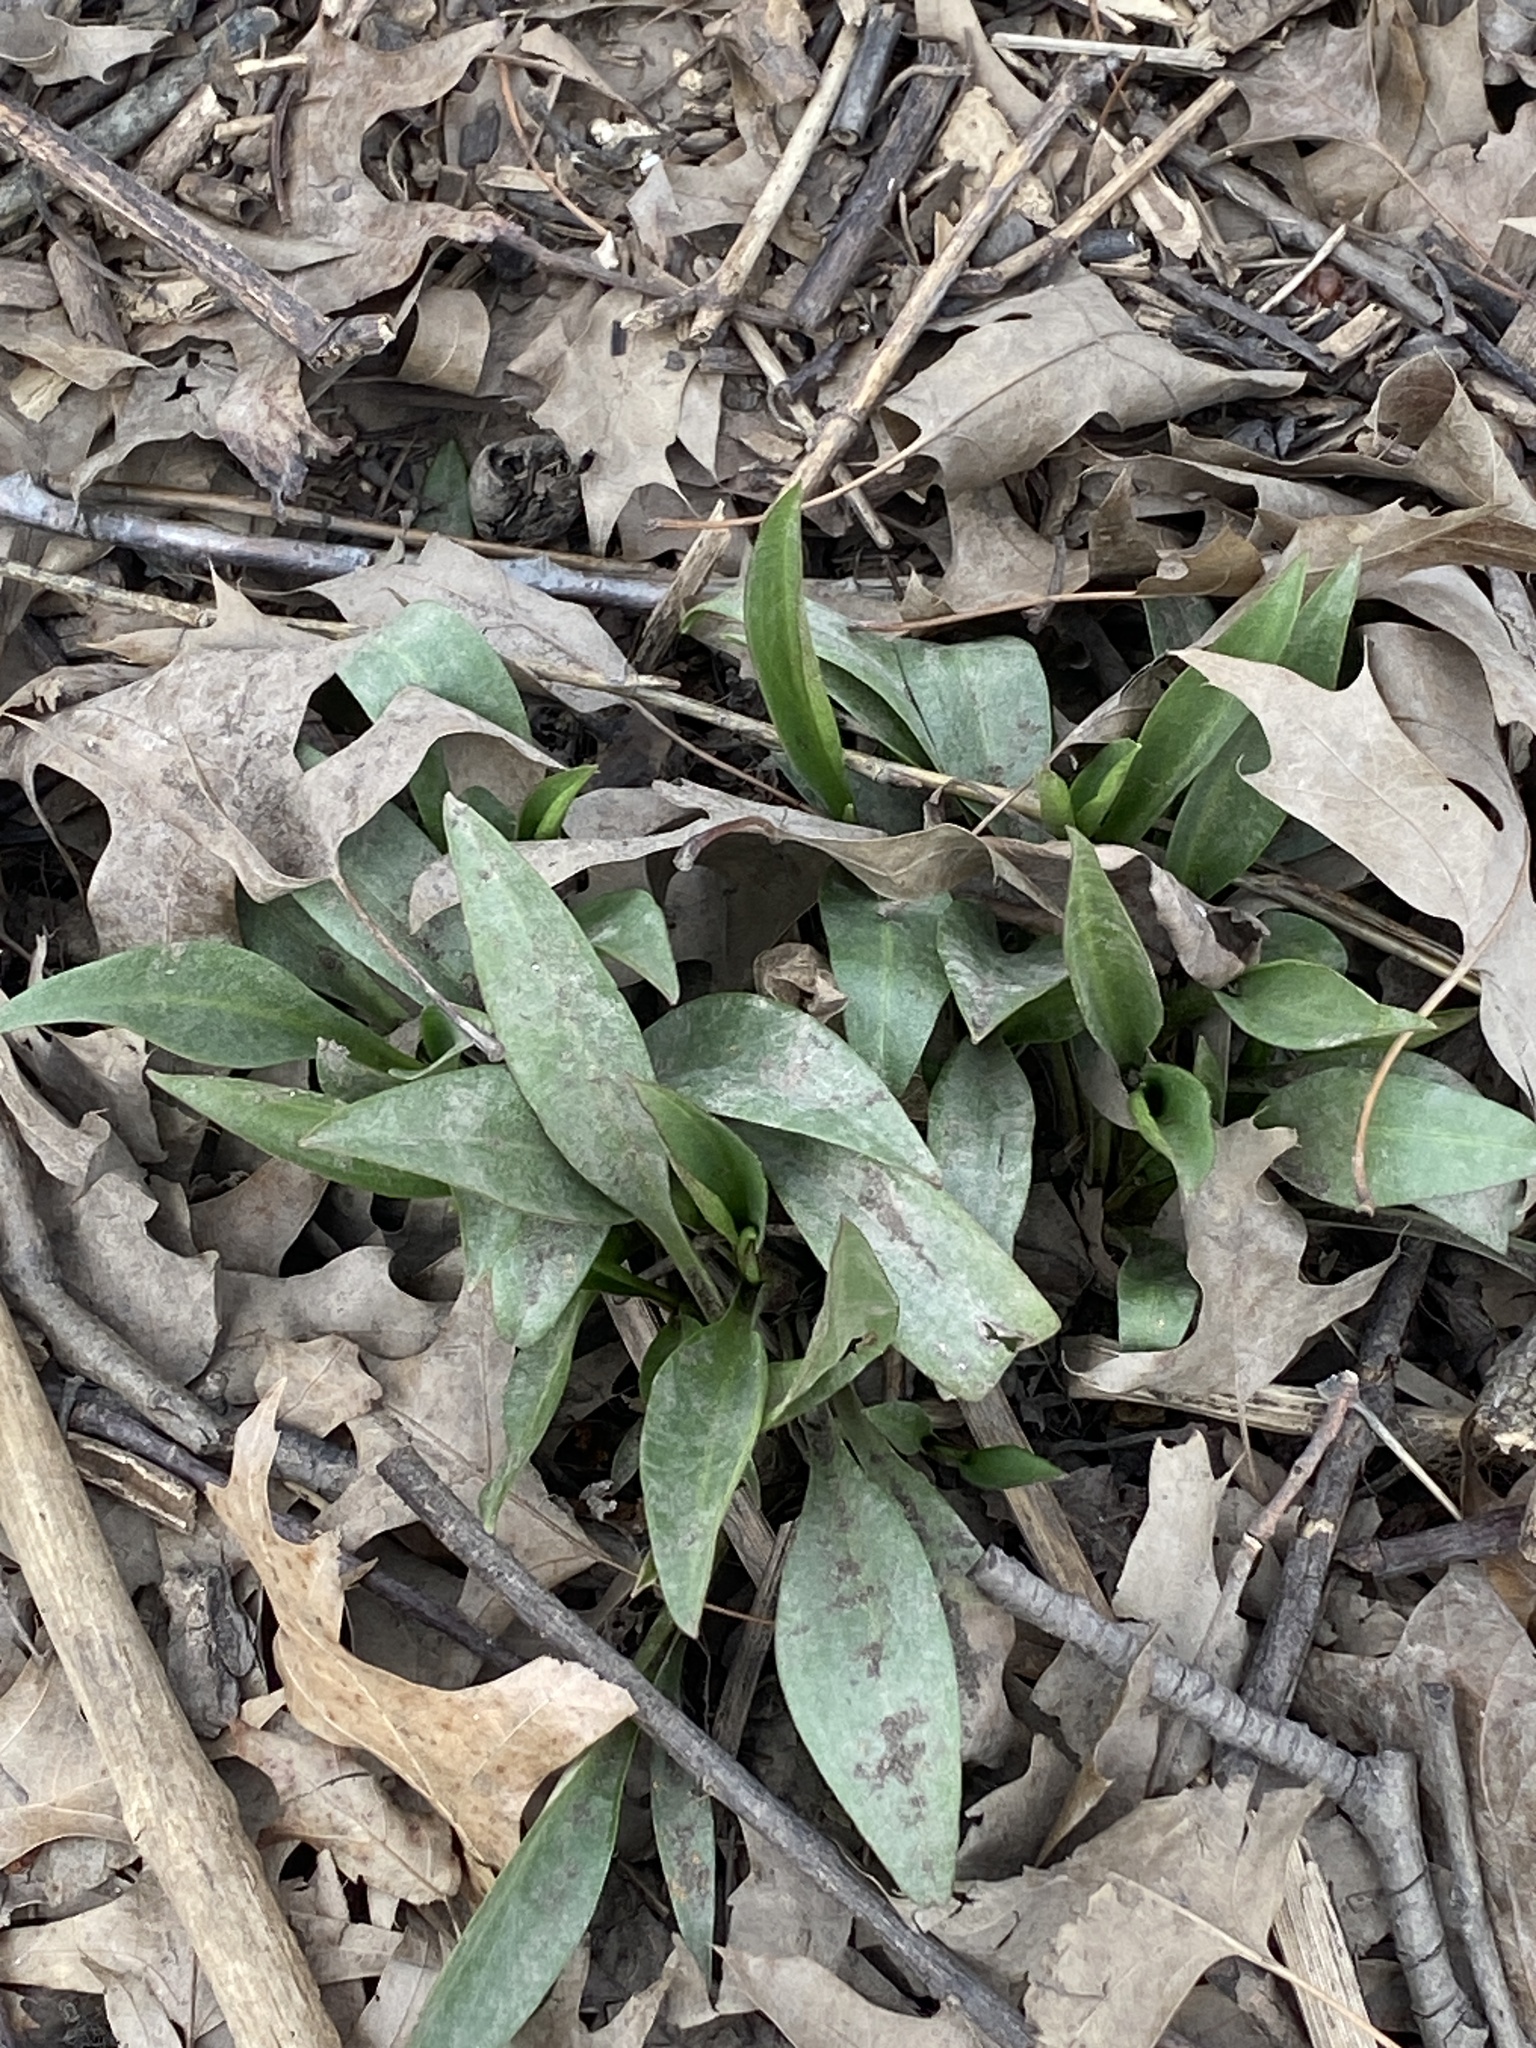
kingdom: Plantae
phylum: Tracheophyta
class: Magnoliopsida
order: Asterales
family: Asteraceae
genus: Solidago
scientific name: Solidago sempervirens
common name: Salt-marsh goldenrod
